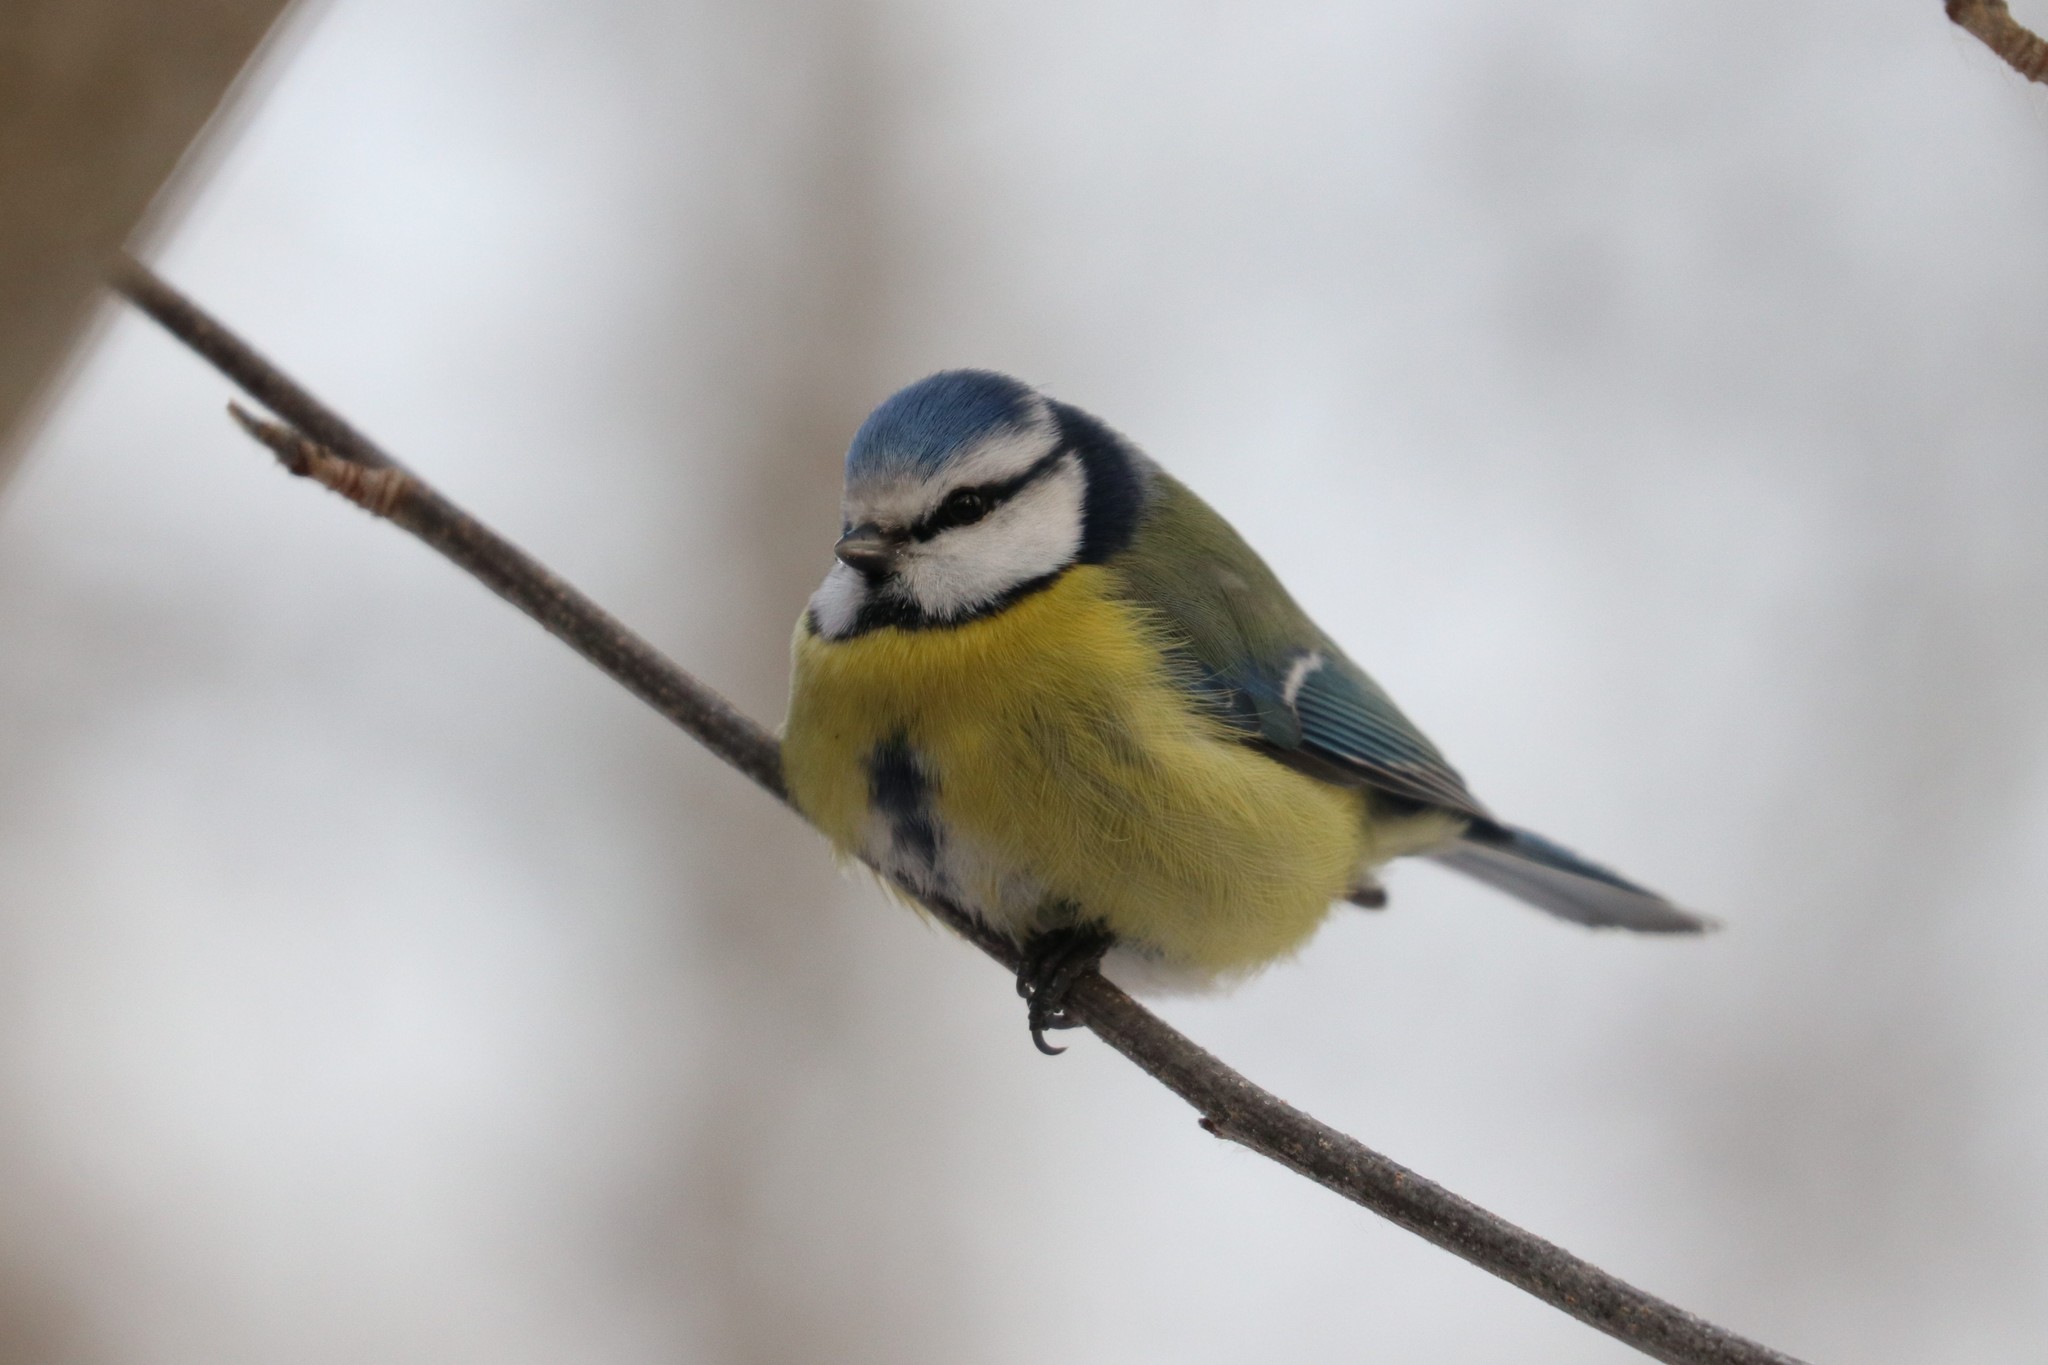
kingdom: Animalia
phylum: Chordata
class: Aves
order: Passeriformes
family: Paridae
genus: Cyanistes
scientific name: Cyanistes caeruleus
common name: Eurasian blue tit
